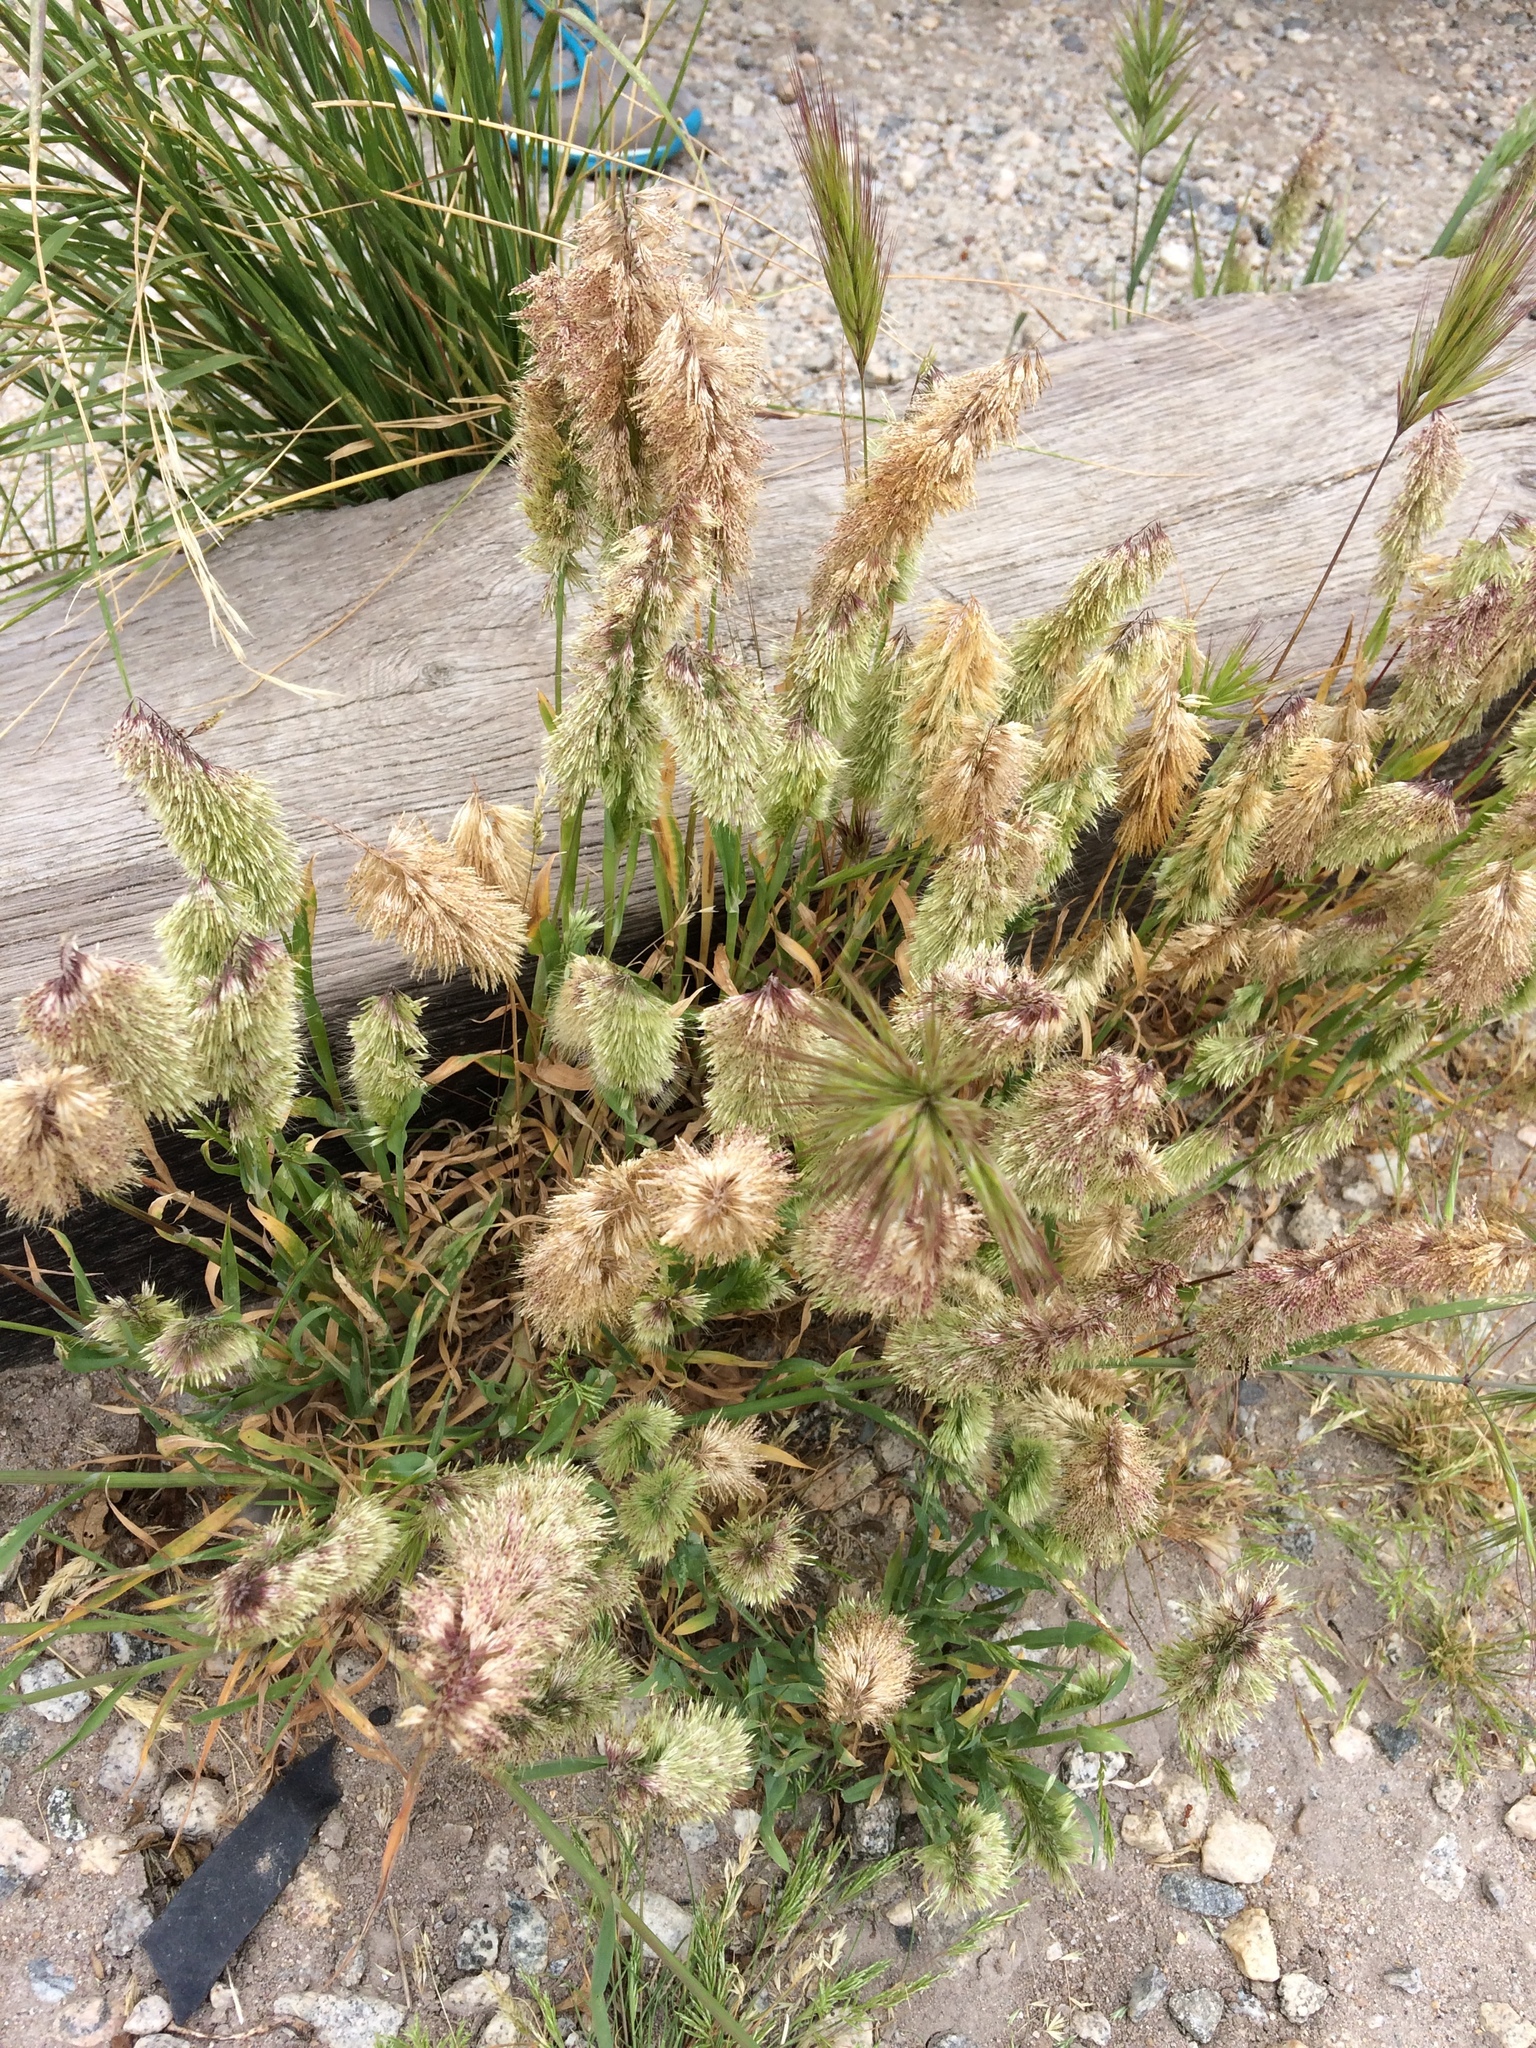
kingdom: Plantae
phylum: Tracheophyta
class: Liliopsida
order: Poales
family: Poaceae
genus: Lamarckia
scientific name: Lamarckia aurea
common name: Golden dog's-tail
